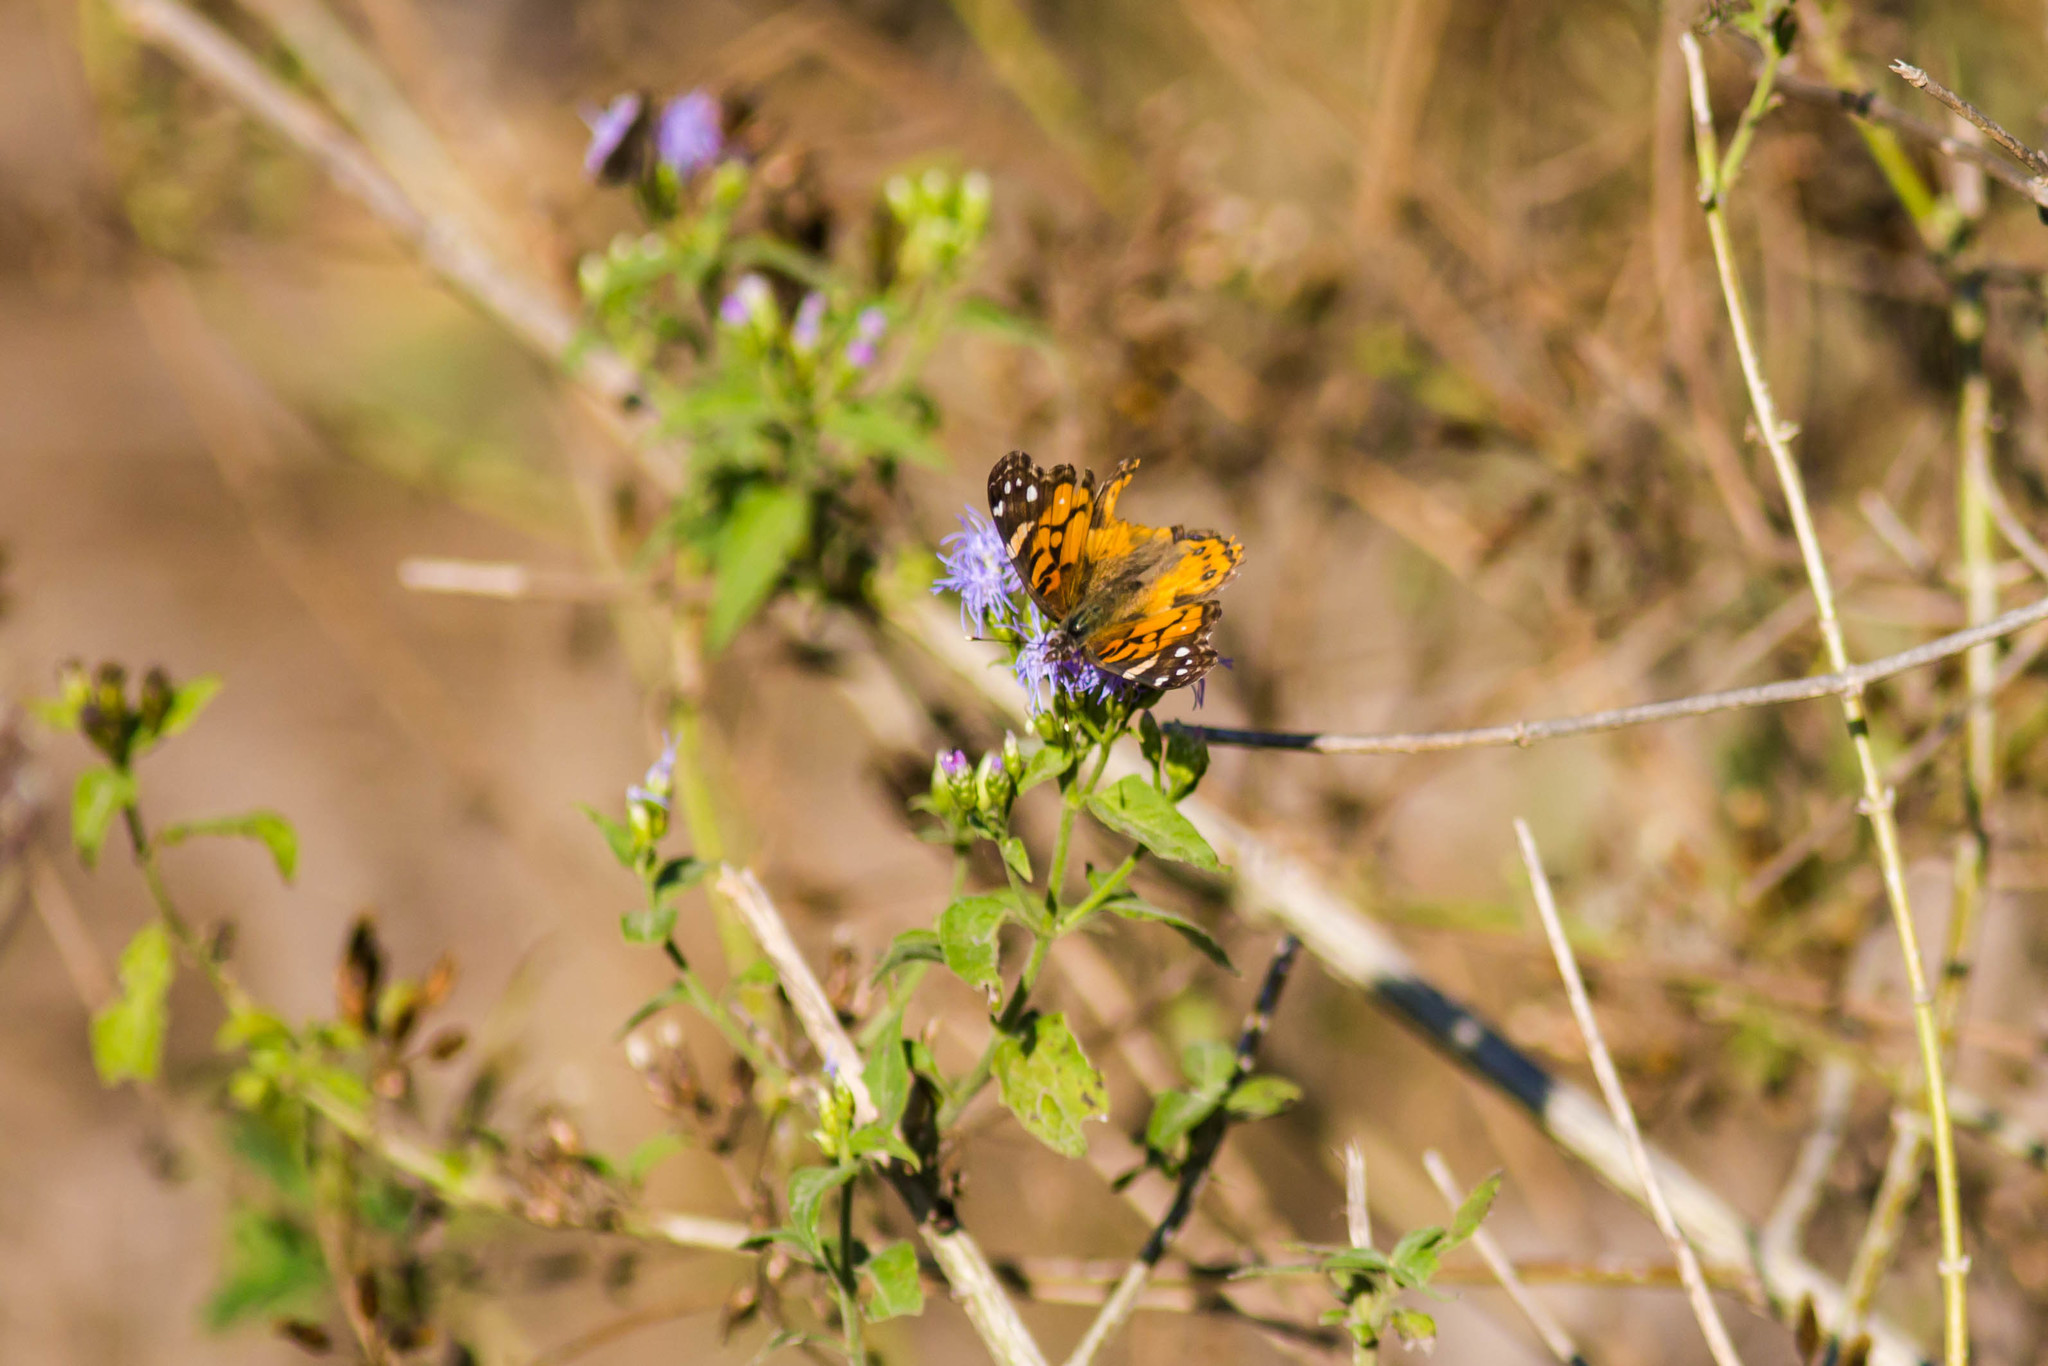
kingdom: Animalia
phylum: Arthropoda
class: Insecta
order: Lepidoptera
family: Nymphalidae
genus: Vanessa
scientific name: Vanessa virginiensis
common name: American lady
